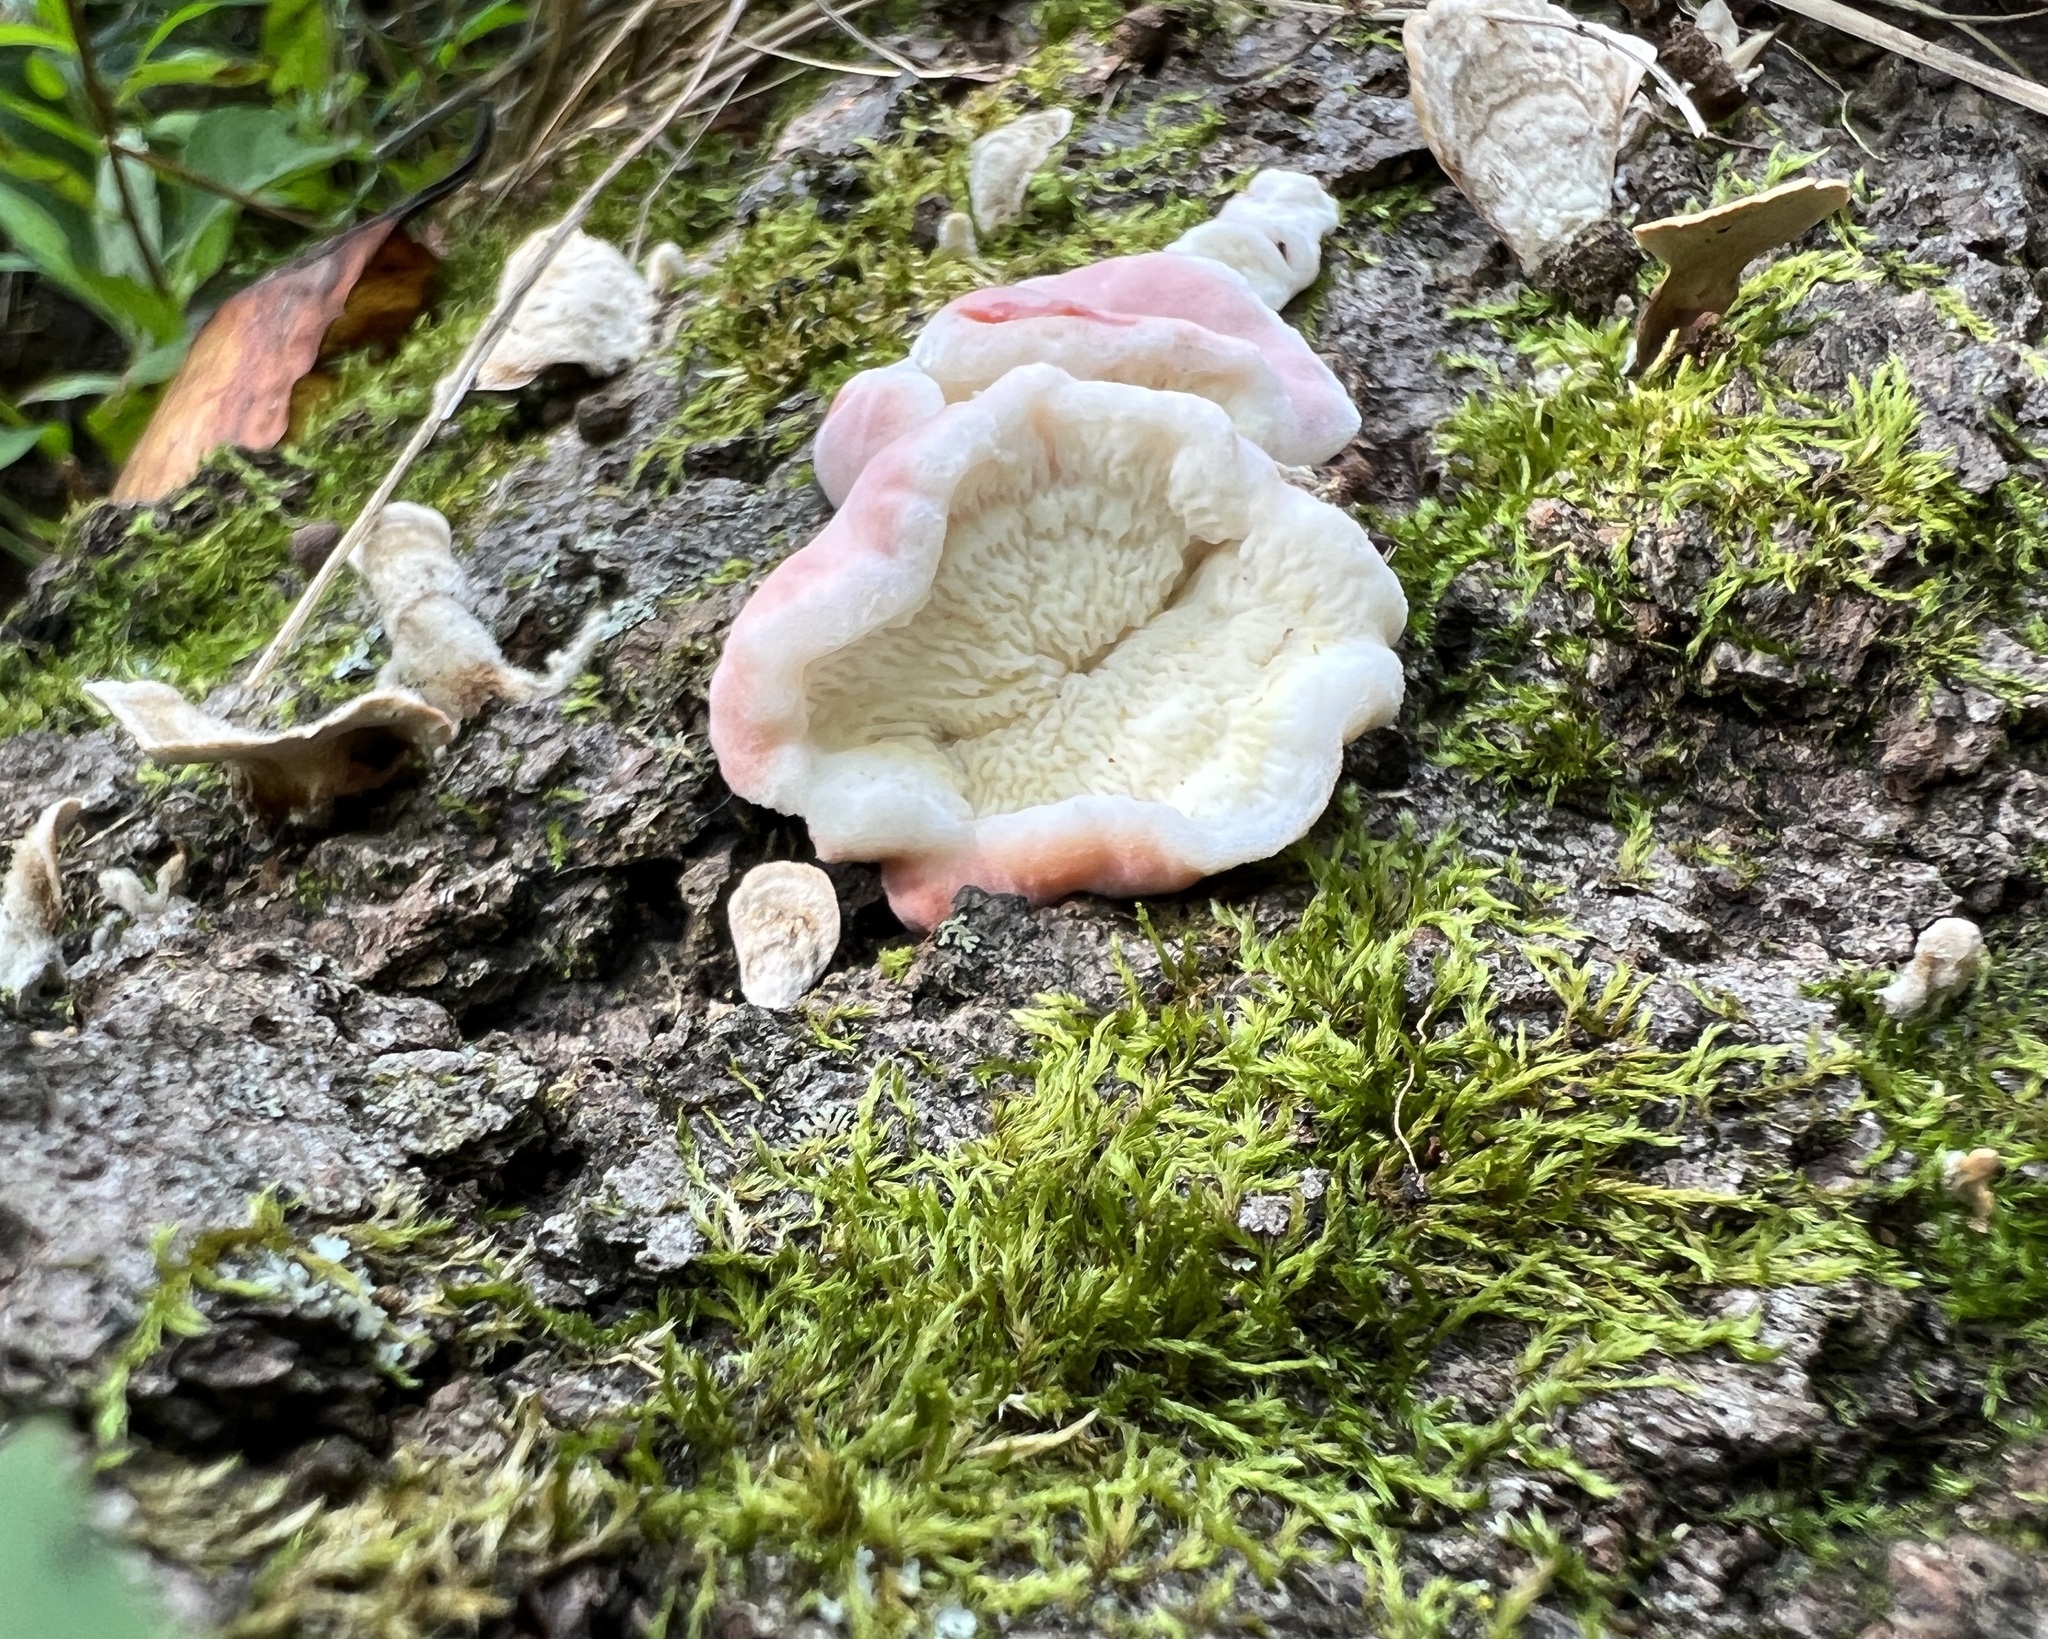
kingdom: Fungi
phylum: Basidiomycota
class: Agaricomycetes
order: Polyporales
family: Irpicaceae
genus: Byssomerulius
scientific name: Byssomerulius incarnatus
